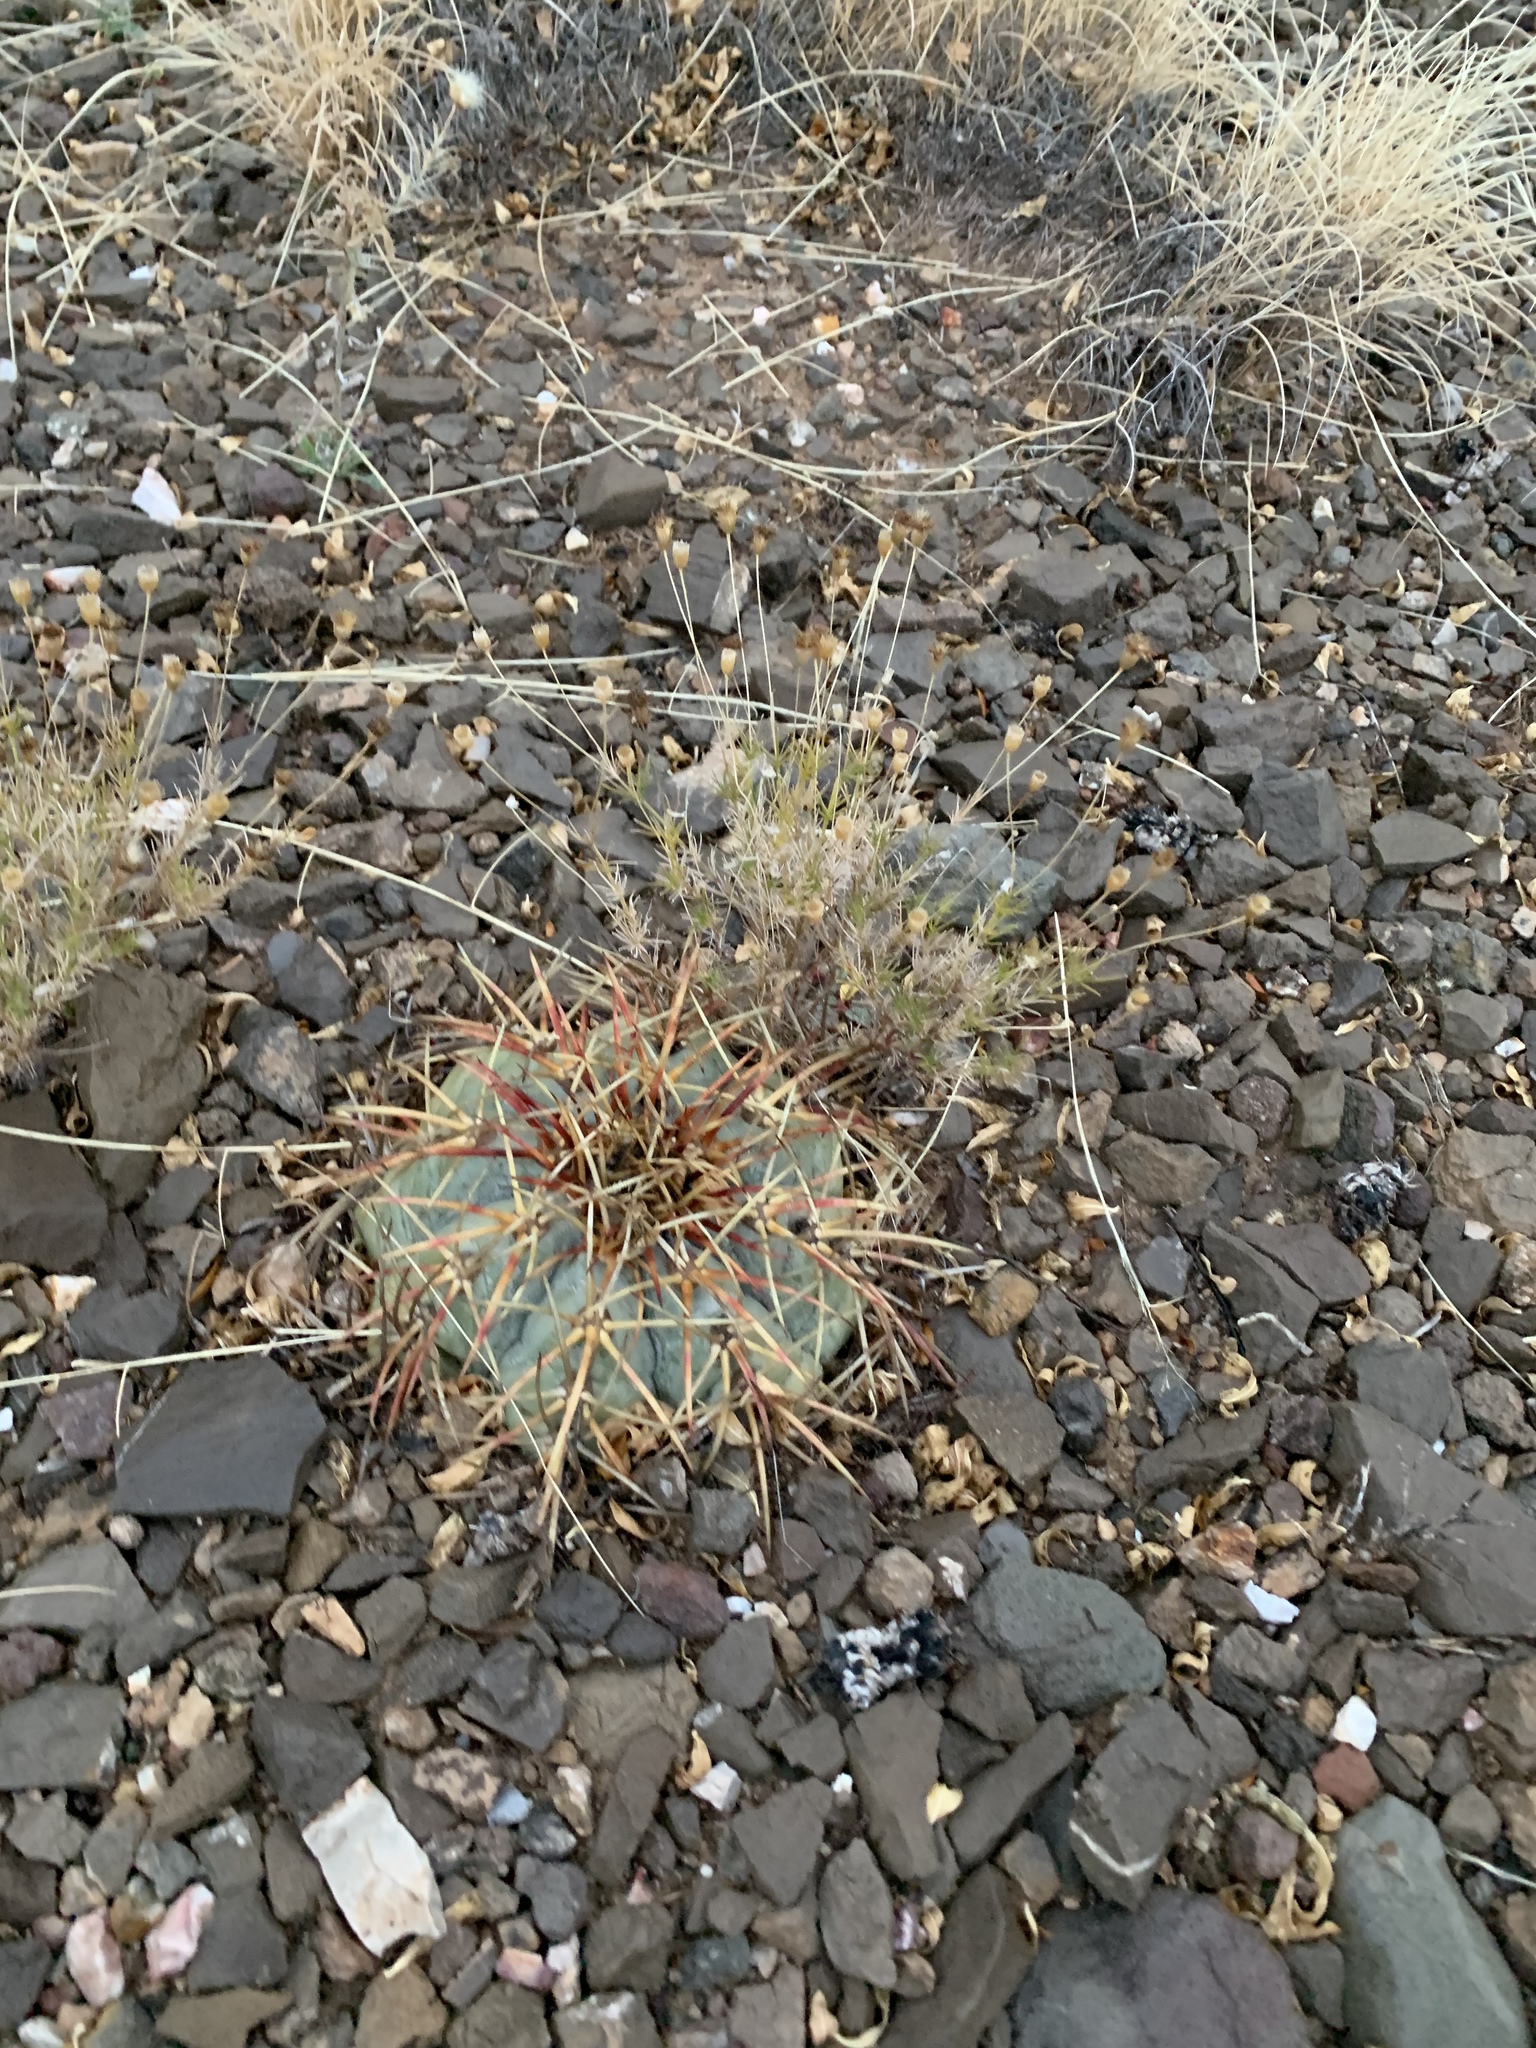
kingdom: Plantae
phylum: Tracheophyta
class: Magnoliopsida
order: Caryophyllales
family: Cactaceae
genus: Echinocactus
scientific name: Echinocactus horizonthalonius
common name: Devilshead
